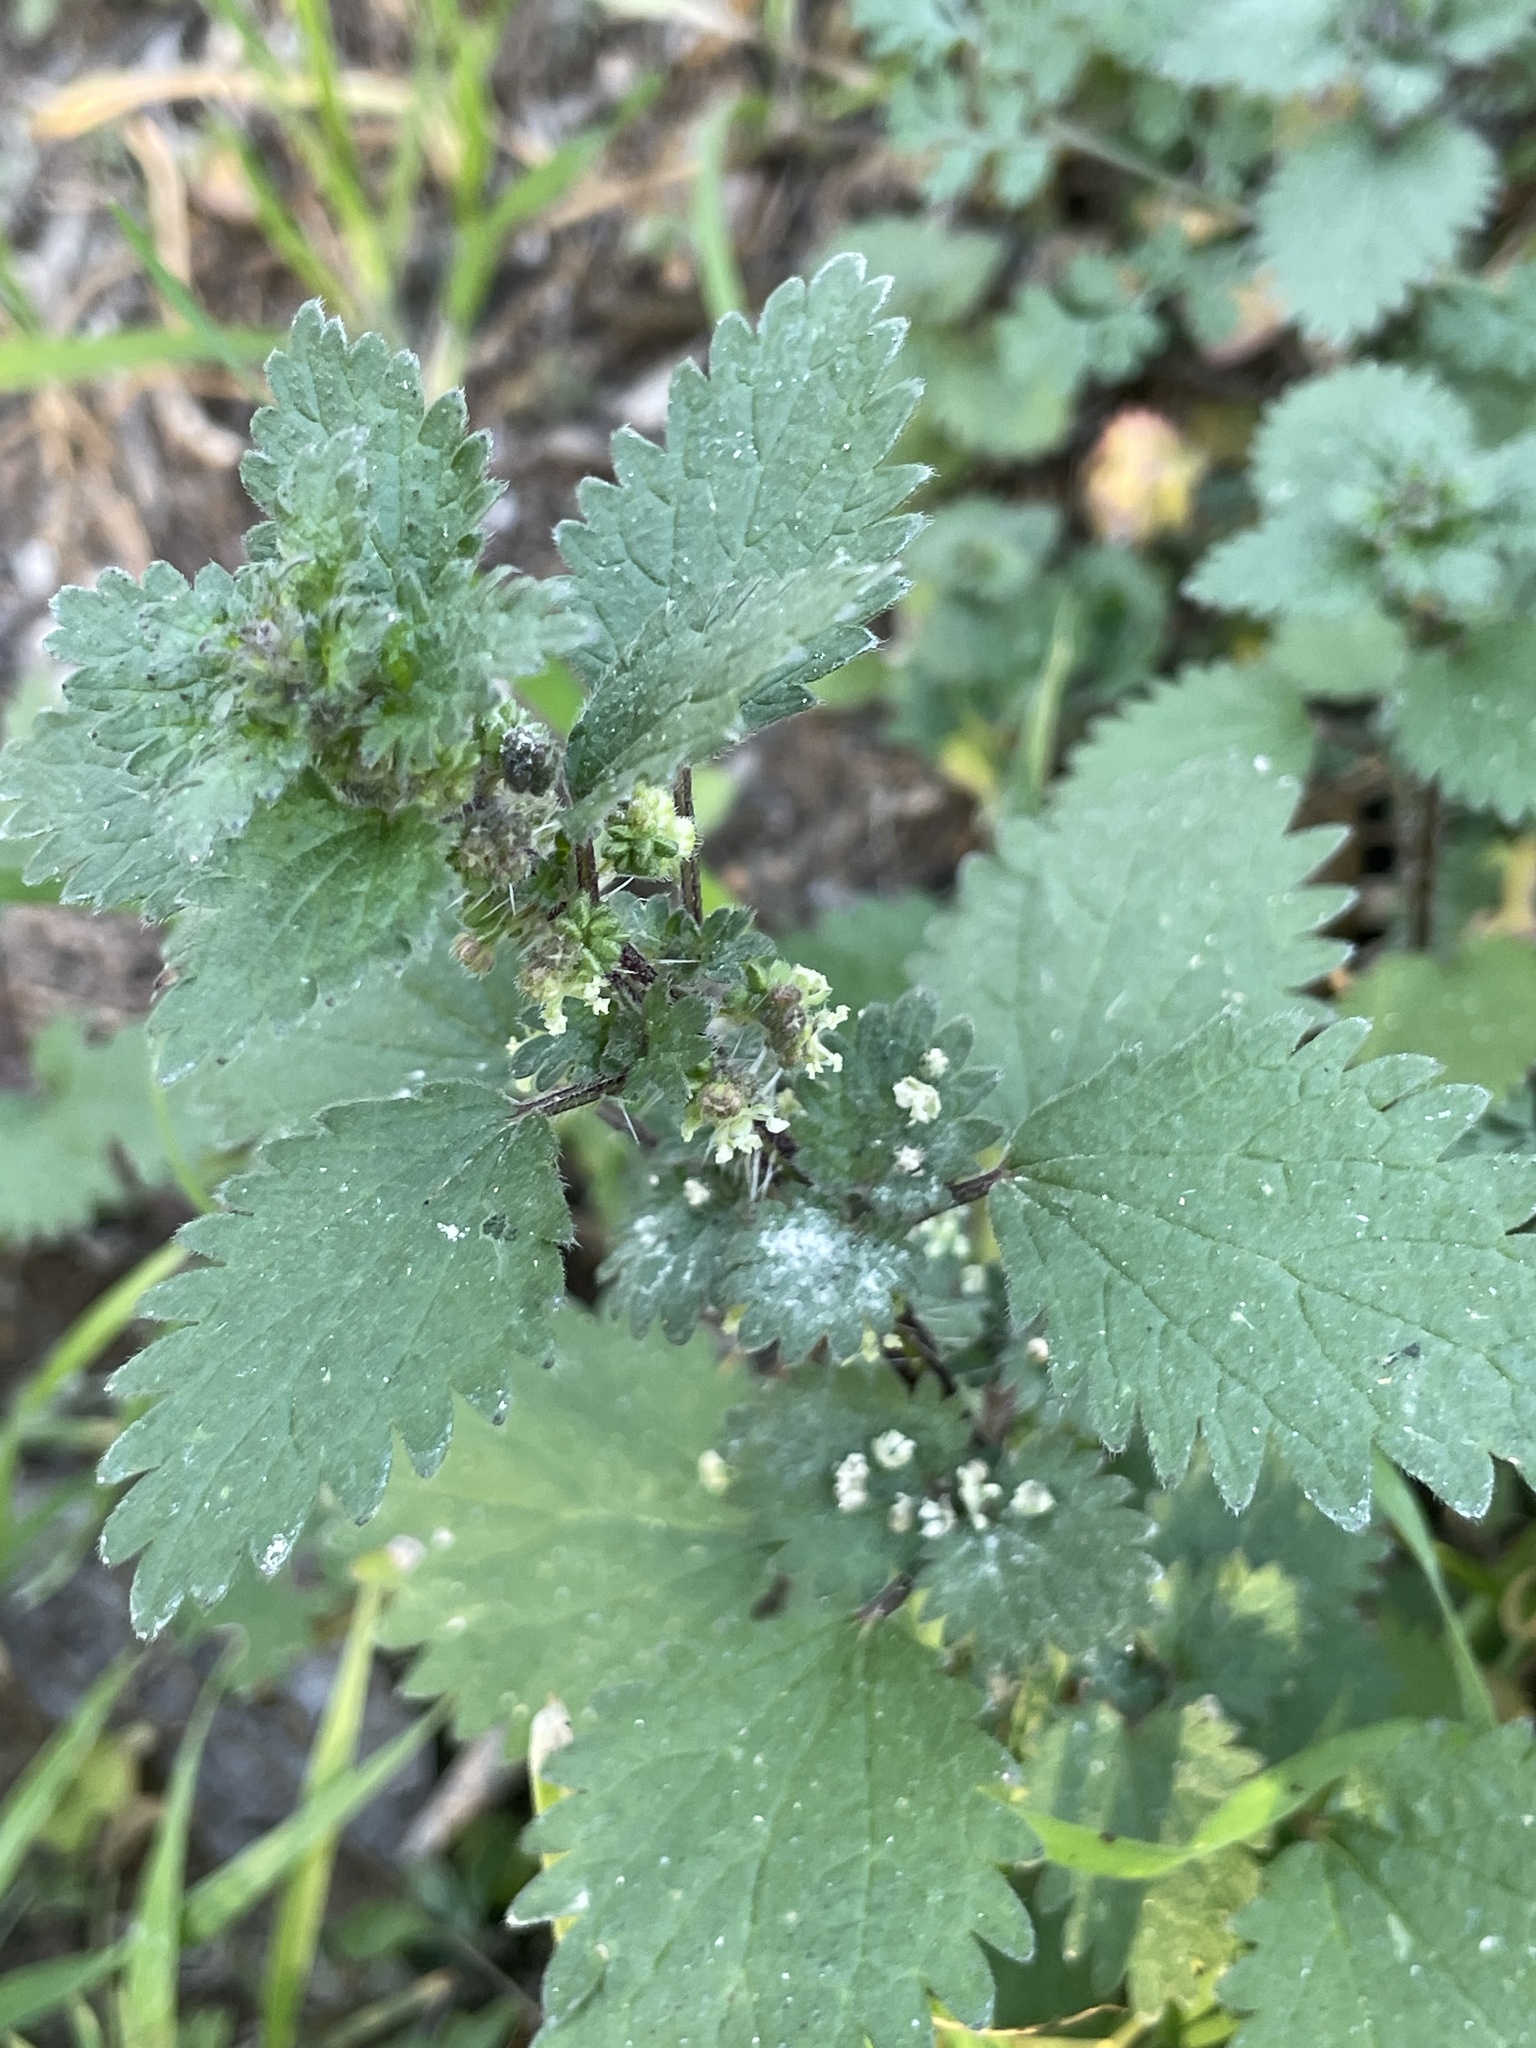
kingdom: Plantae
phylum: Tracheophyta
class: Magnoliopsida
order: Rosales
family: Urticaceae
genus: Urtica
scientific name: Urtica chamaedryoides
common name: Heart-leaf nettle
